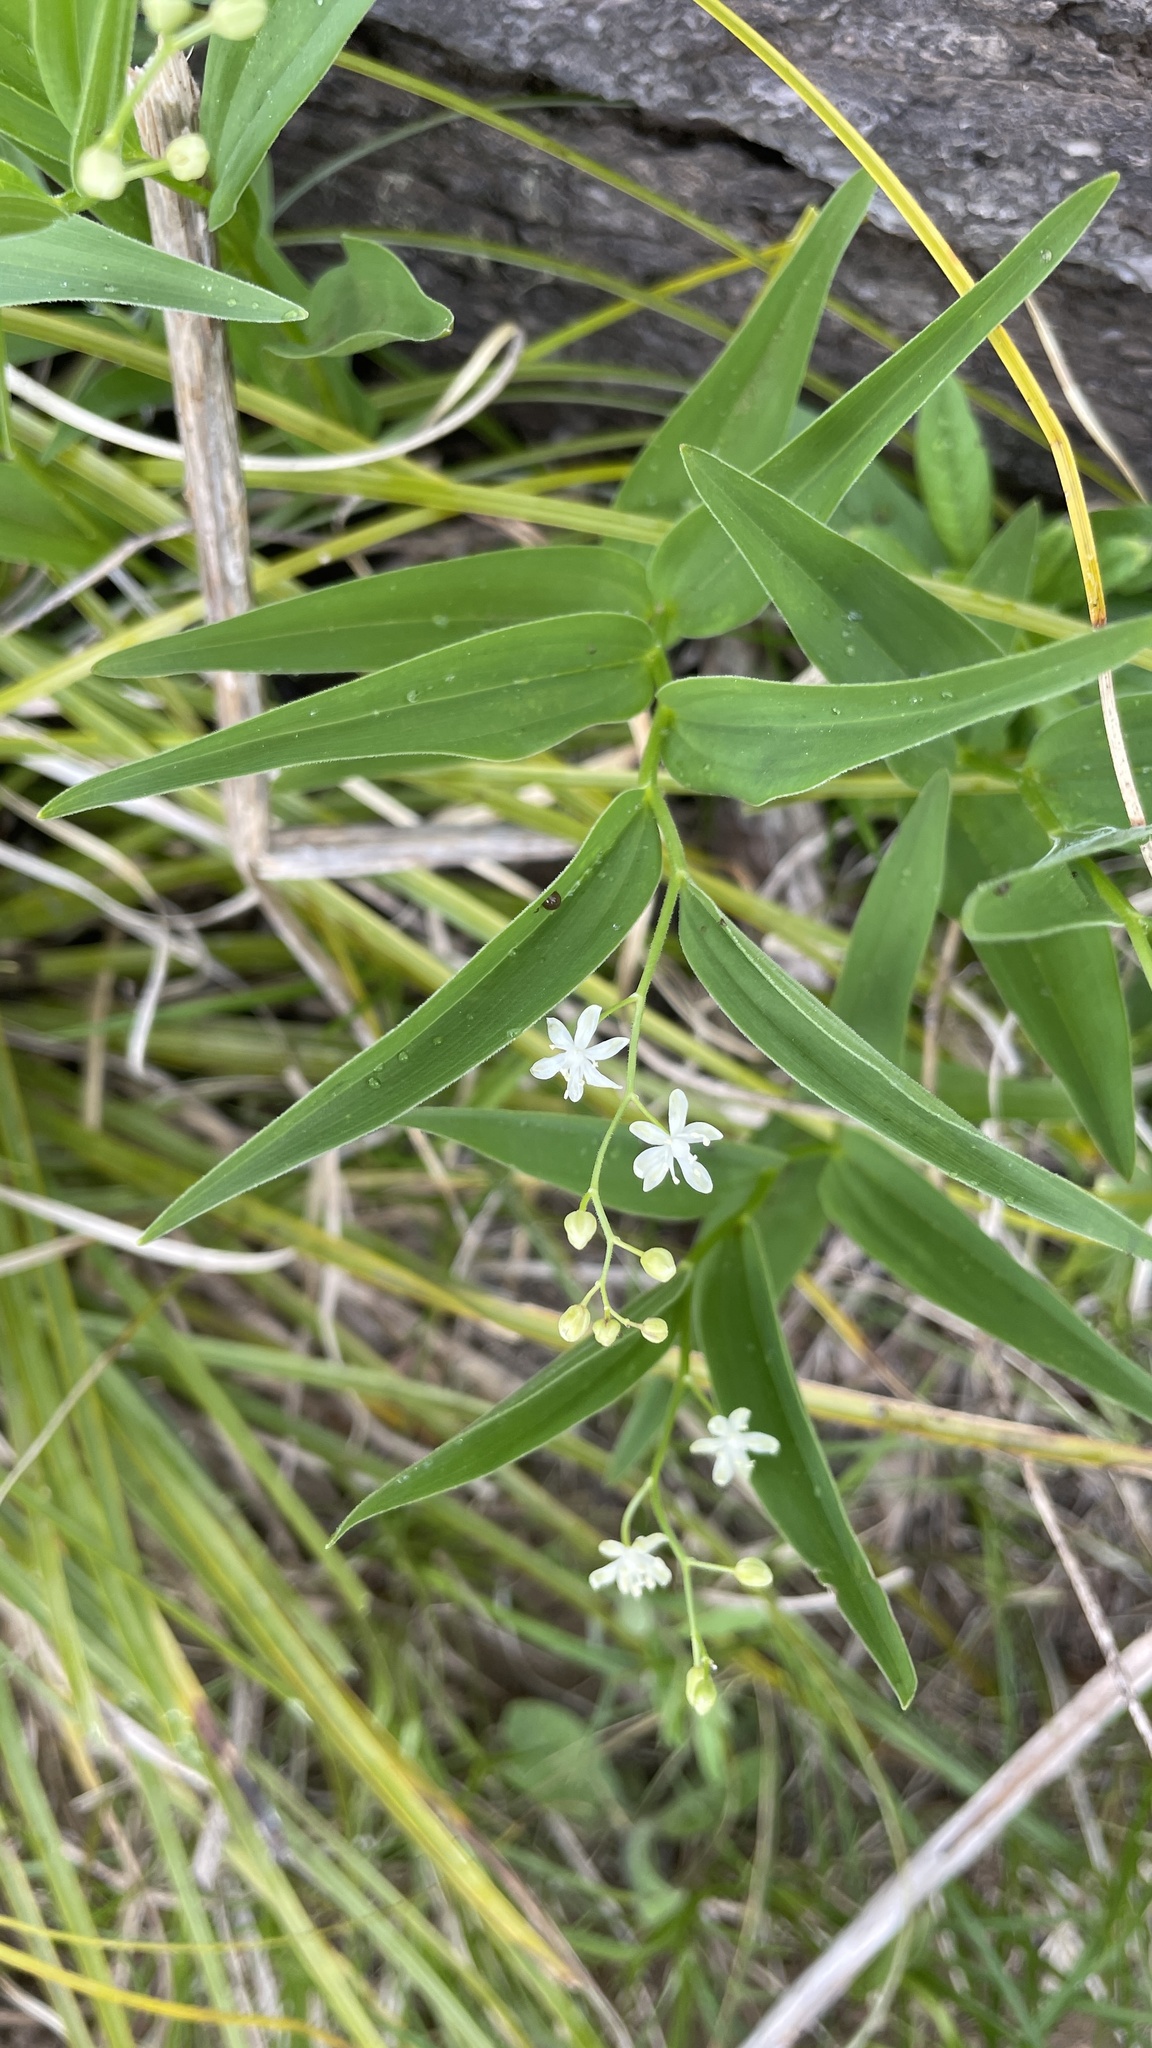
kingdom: Plantae
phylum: Tracheophyta
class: Liliopsida
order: Asparagales
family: Asparagaceae
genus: Maianthemum
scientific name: Maianthemum stellatum
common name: Little false solomon's seal
